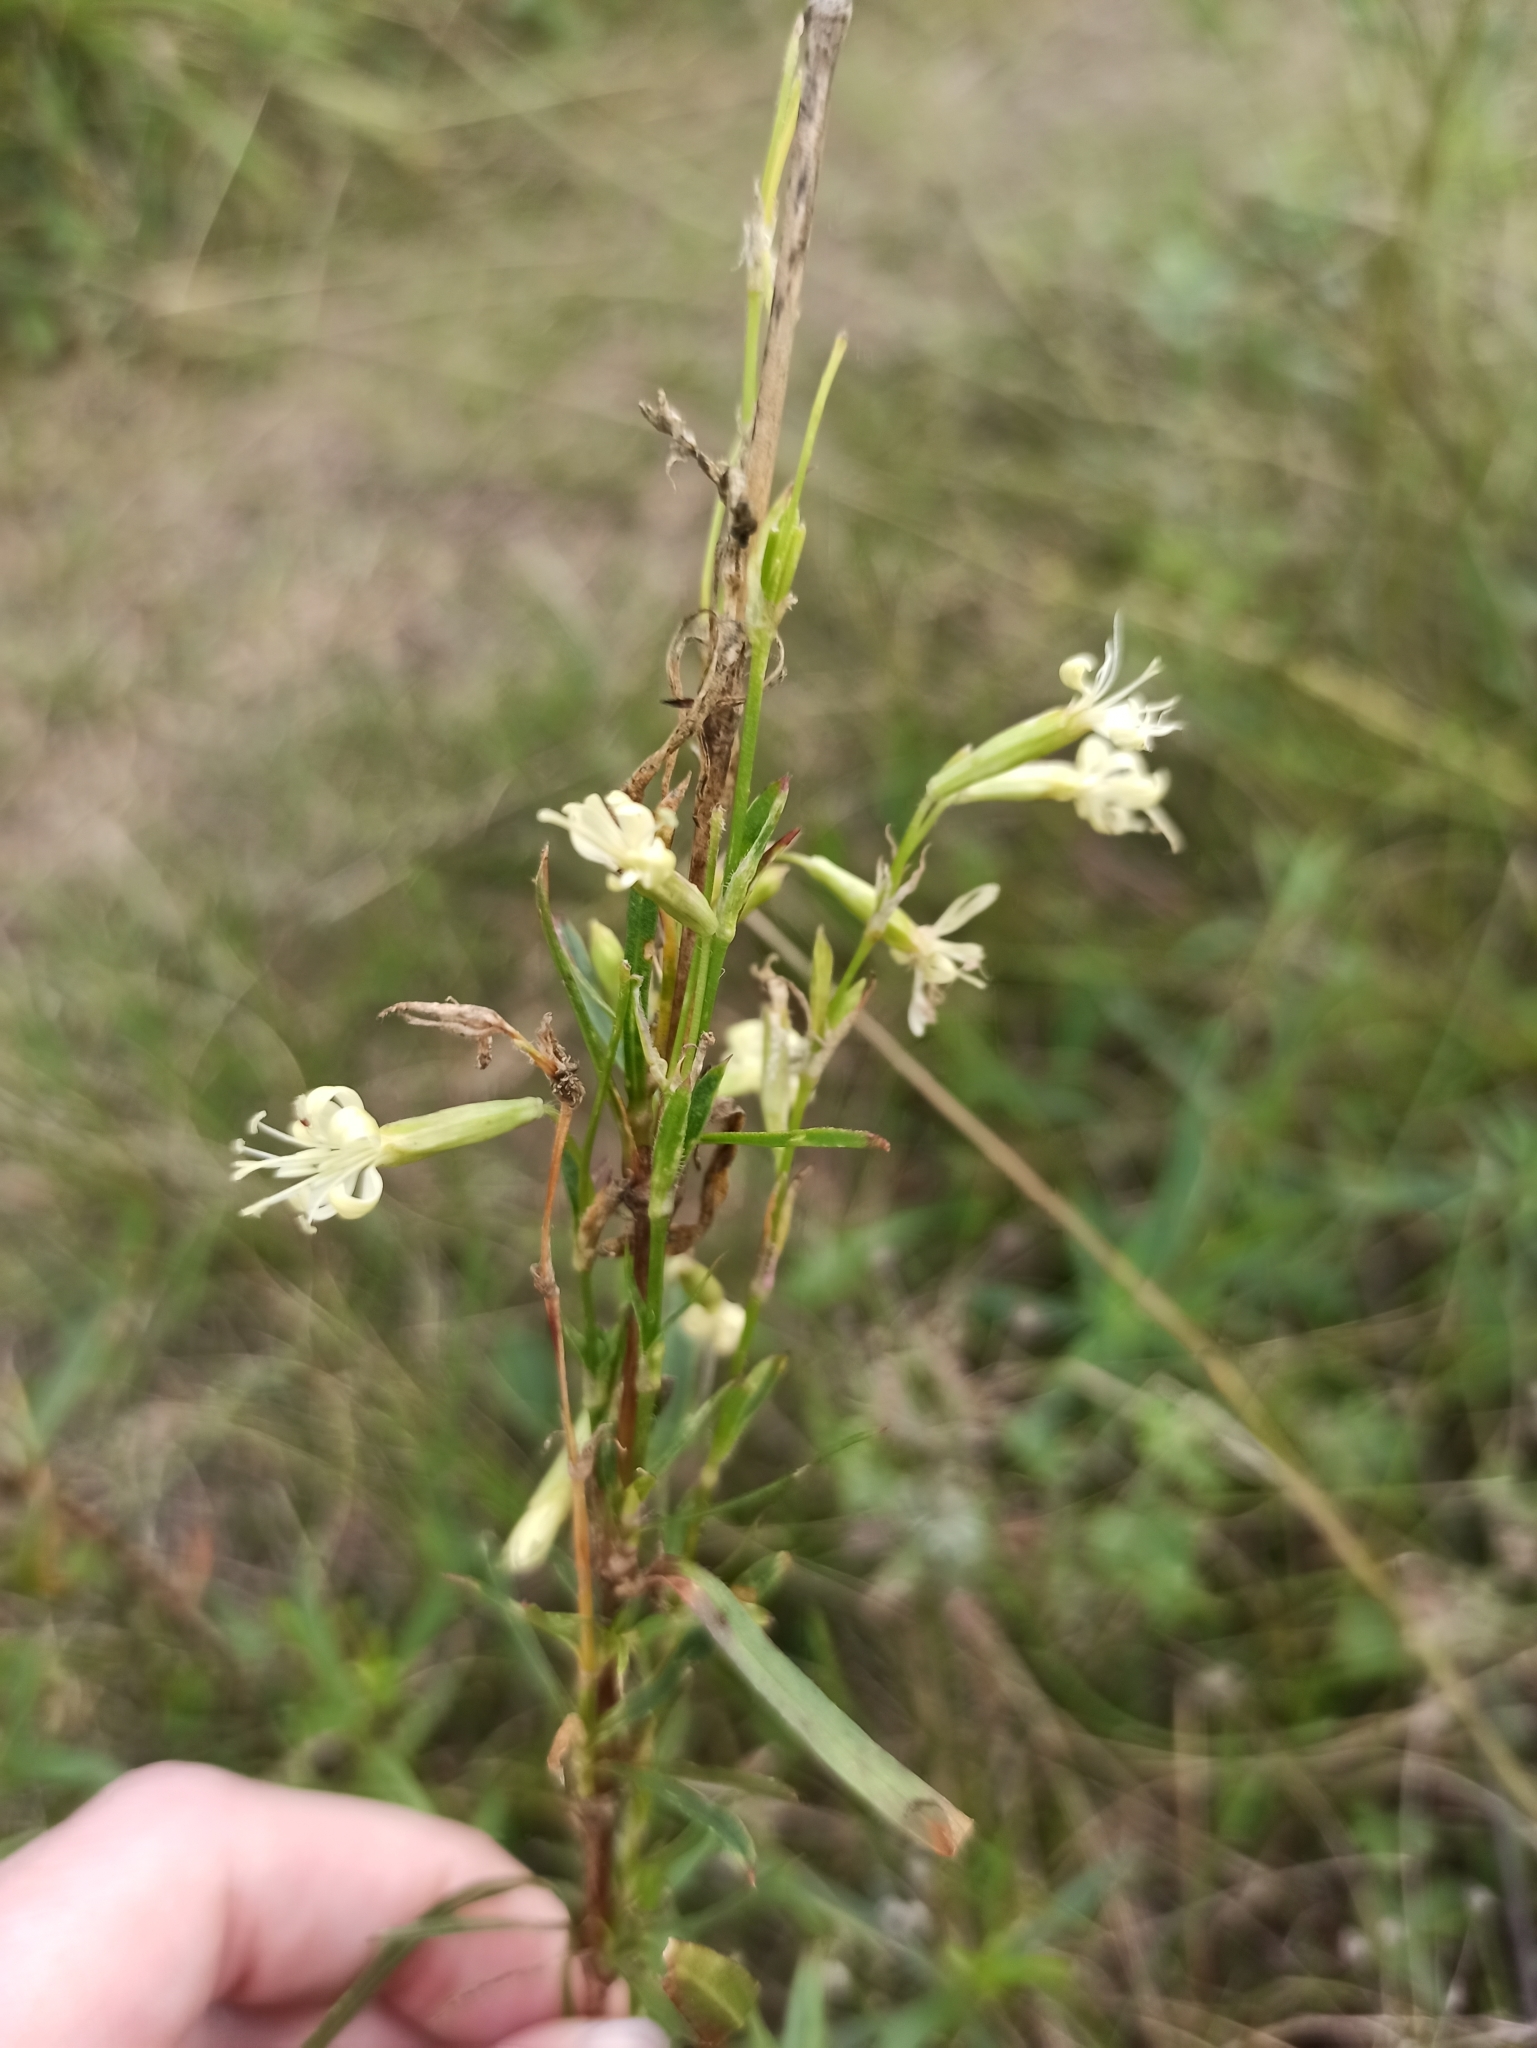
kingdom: Plantae
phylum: Tracheophyta
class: Magnoliopsida
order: Caryophyllales
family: Caryophyllaceae
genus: Silene
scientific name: Silene tatarica
